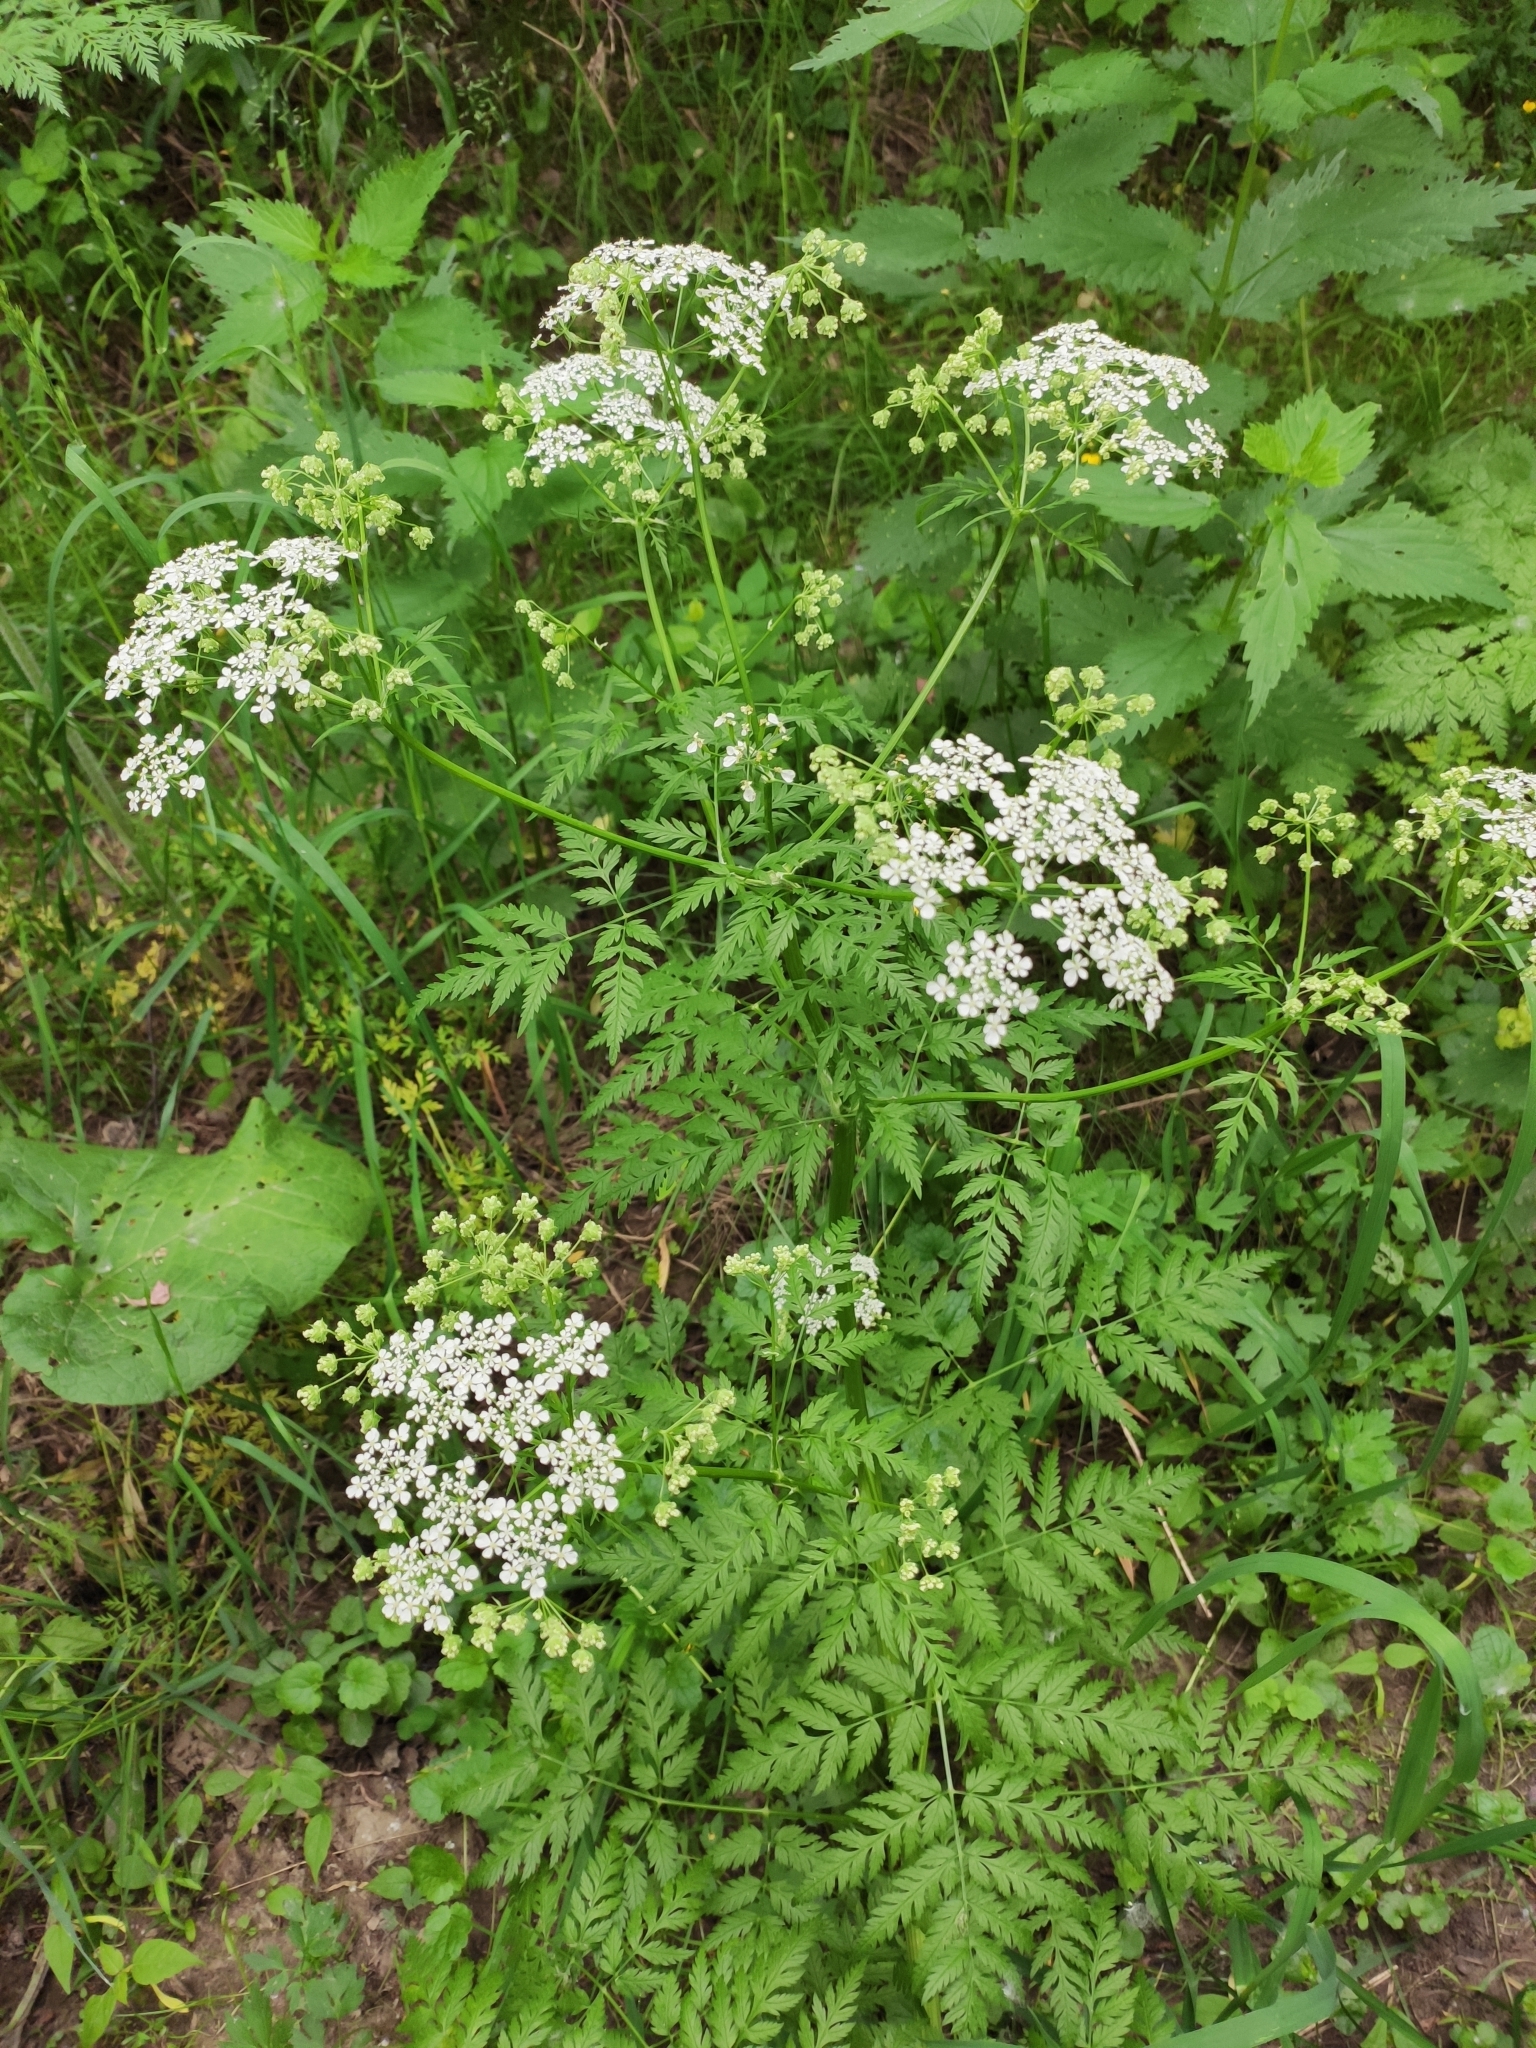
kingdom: Plantae
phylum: Tracheophyta
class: Magnoliopsida
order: Apiales
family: Apiaceae
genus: Anthriscus
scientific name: Anthriscus sylvestris
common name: Cow parsley
